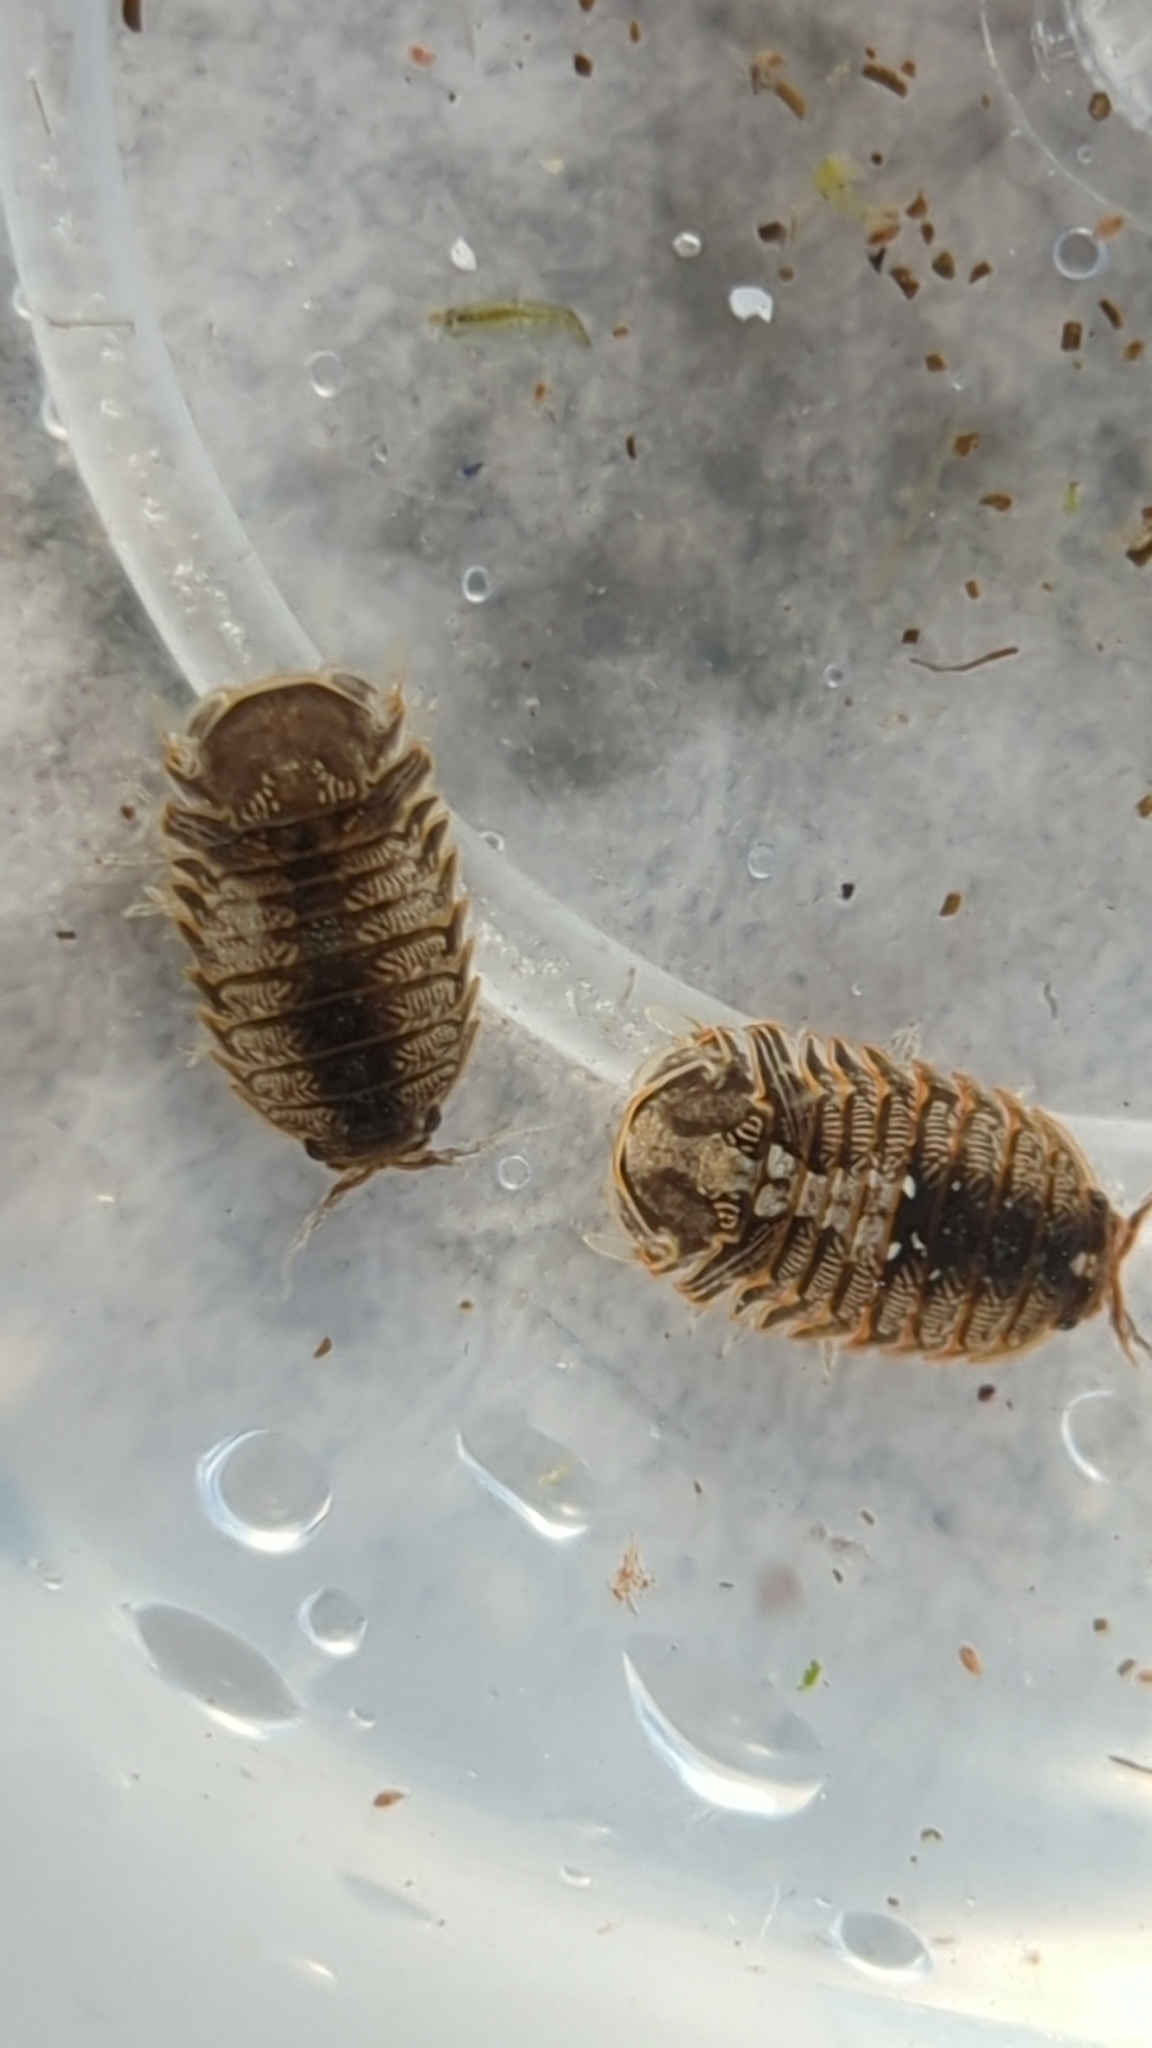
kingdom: Animalia
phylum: Arthropoda
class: Malacostraca
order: Isopoda
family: Sphaeromatidae
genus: Gnorimosphaeroma
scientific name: Gnorimosphaeroma oregonense
